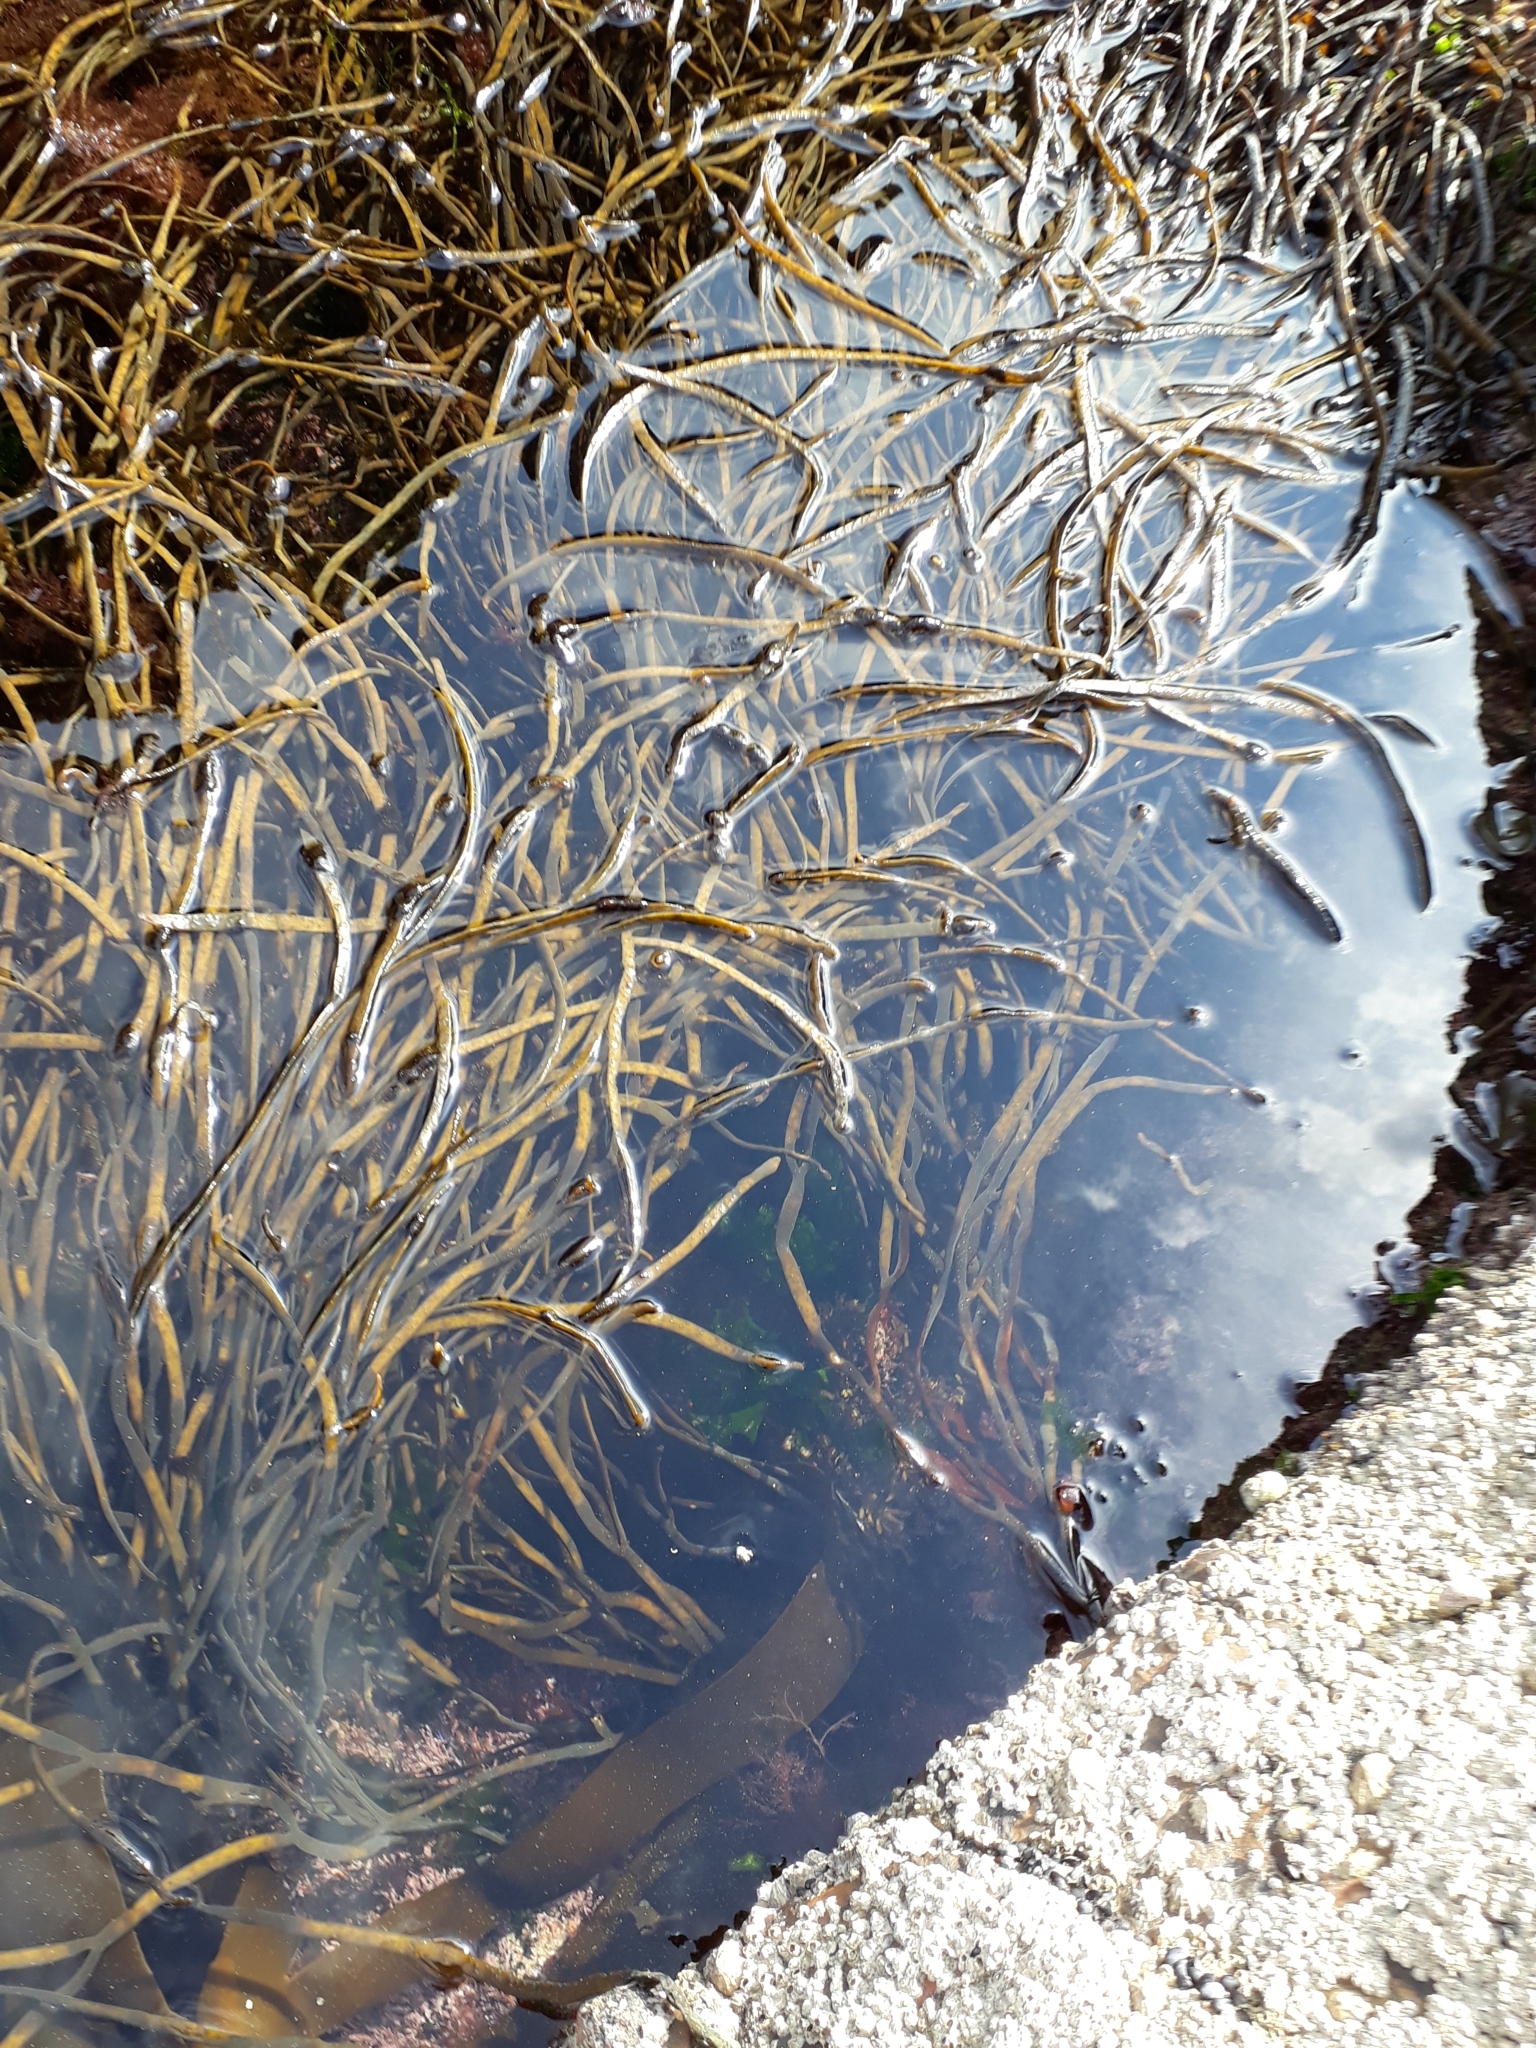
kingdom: Chromista
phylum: Ochrophyta
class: Phaeophyceae
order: Fucales
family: Himanthaliaceae
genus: Himanthalia
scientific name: Himanthalia elongata
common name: Sea-thong
